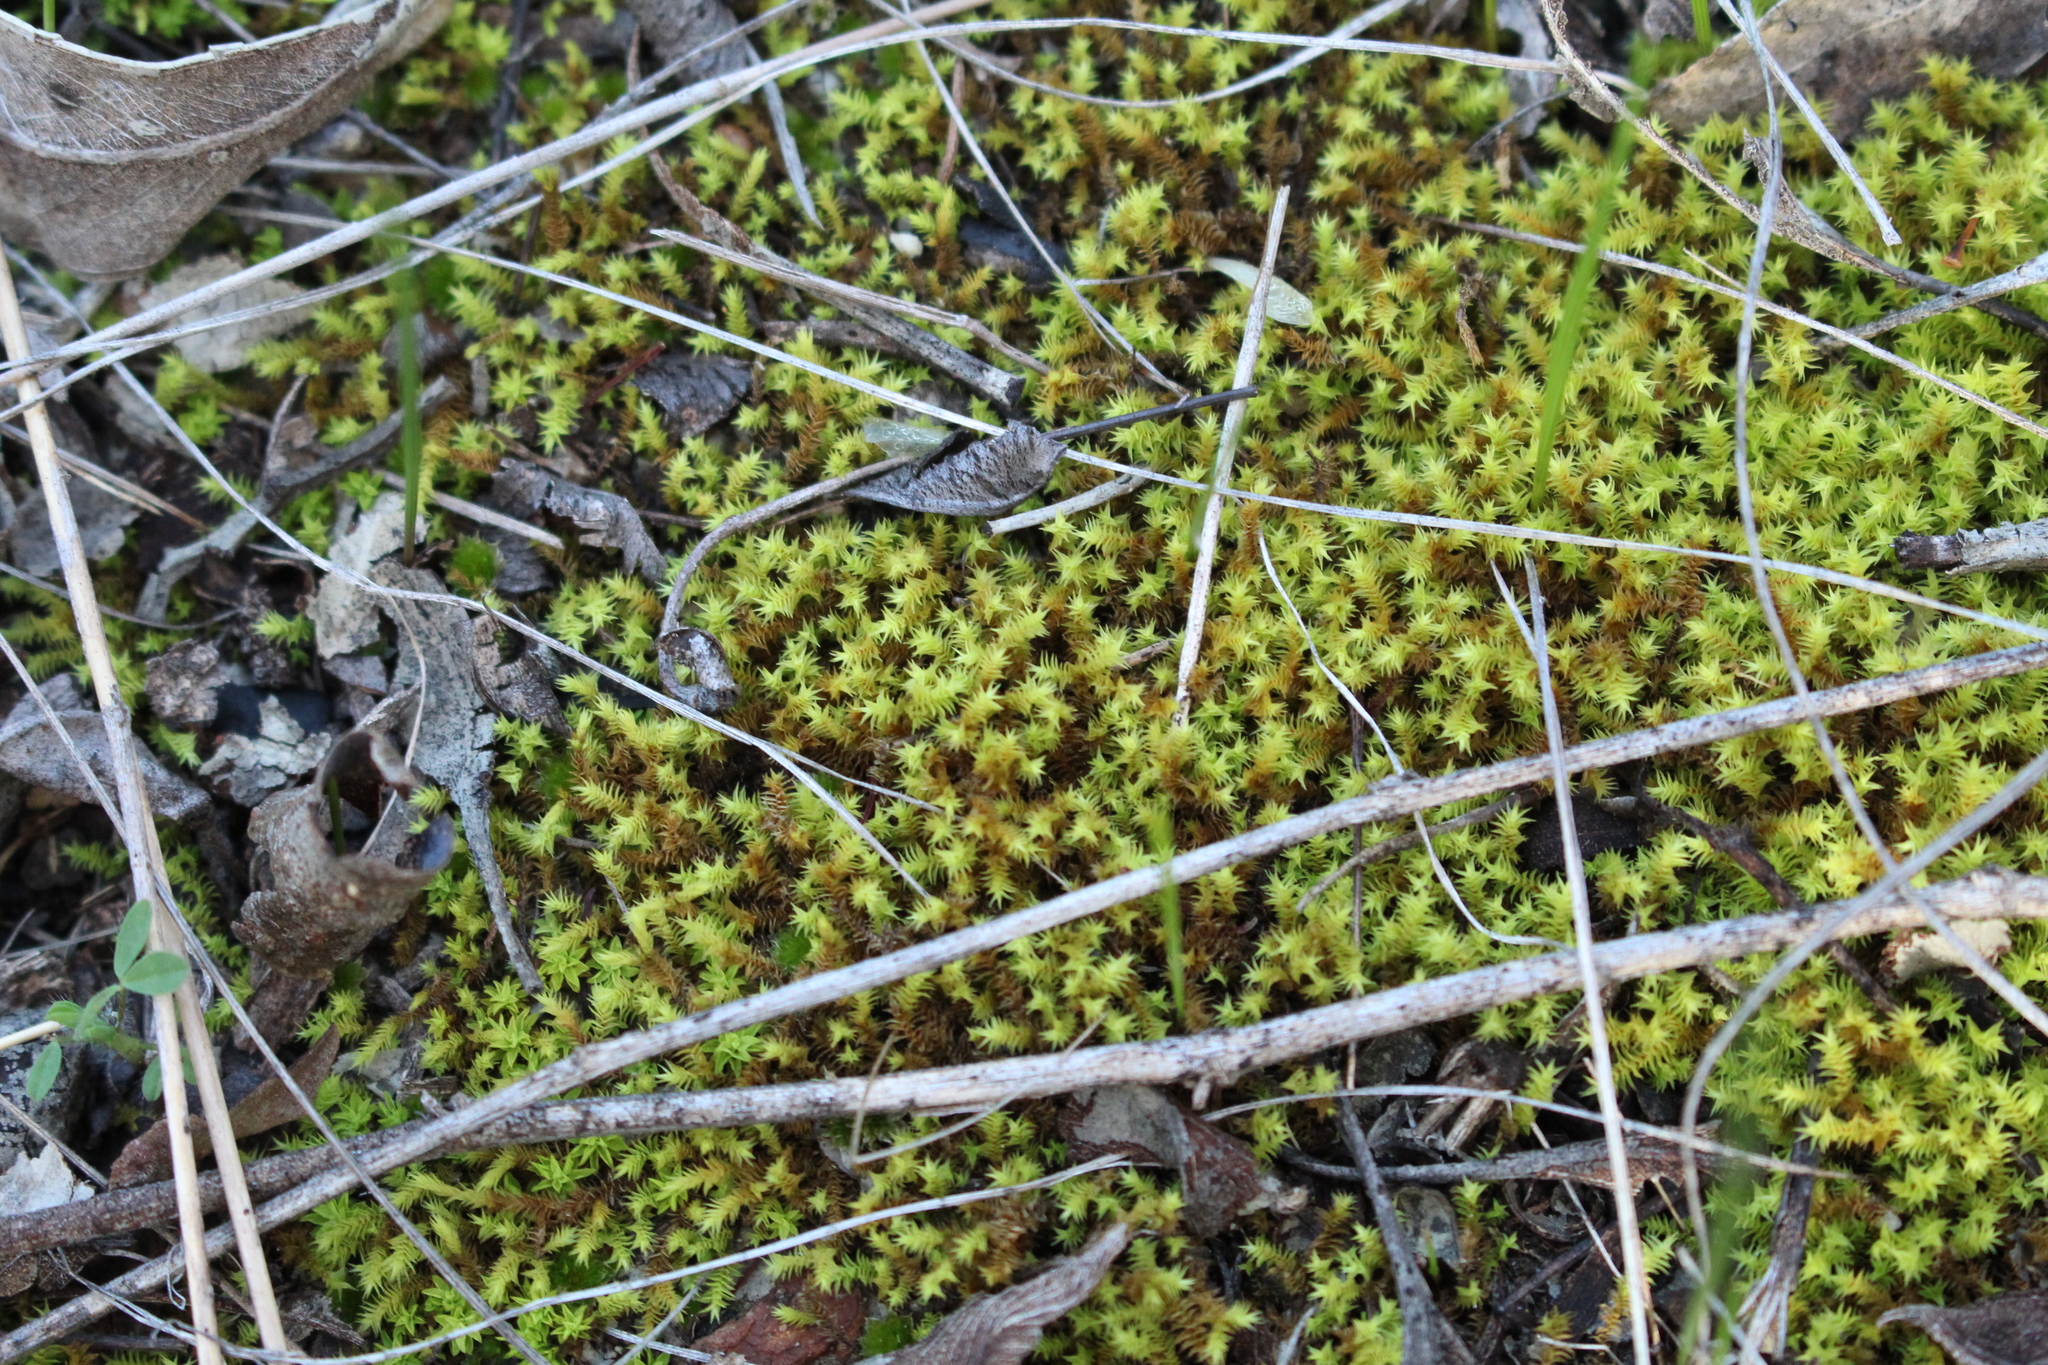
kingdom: Plantae
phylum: Bryophyta
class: Bryopsida
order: Pottiales
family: Pottiaceae
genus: Triquetrella
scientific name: Triquetrella papillata
